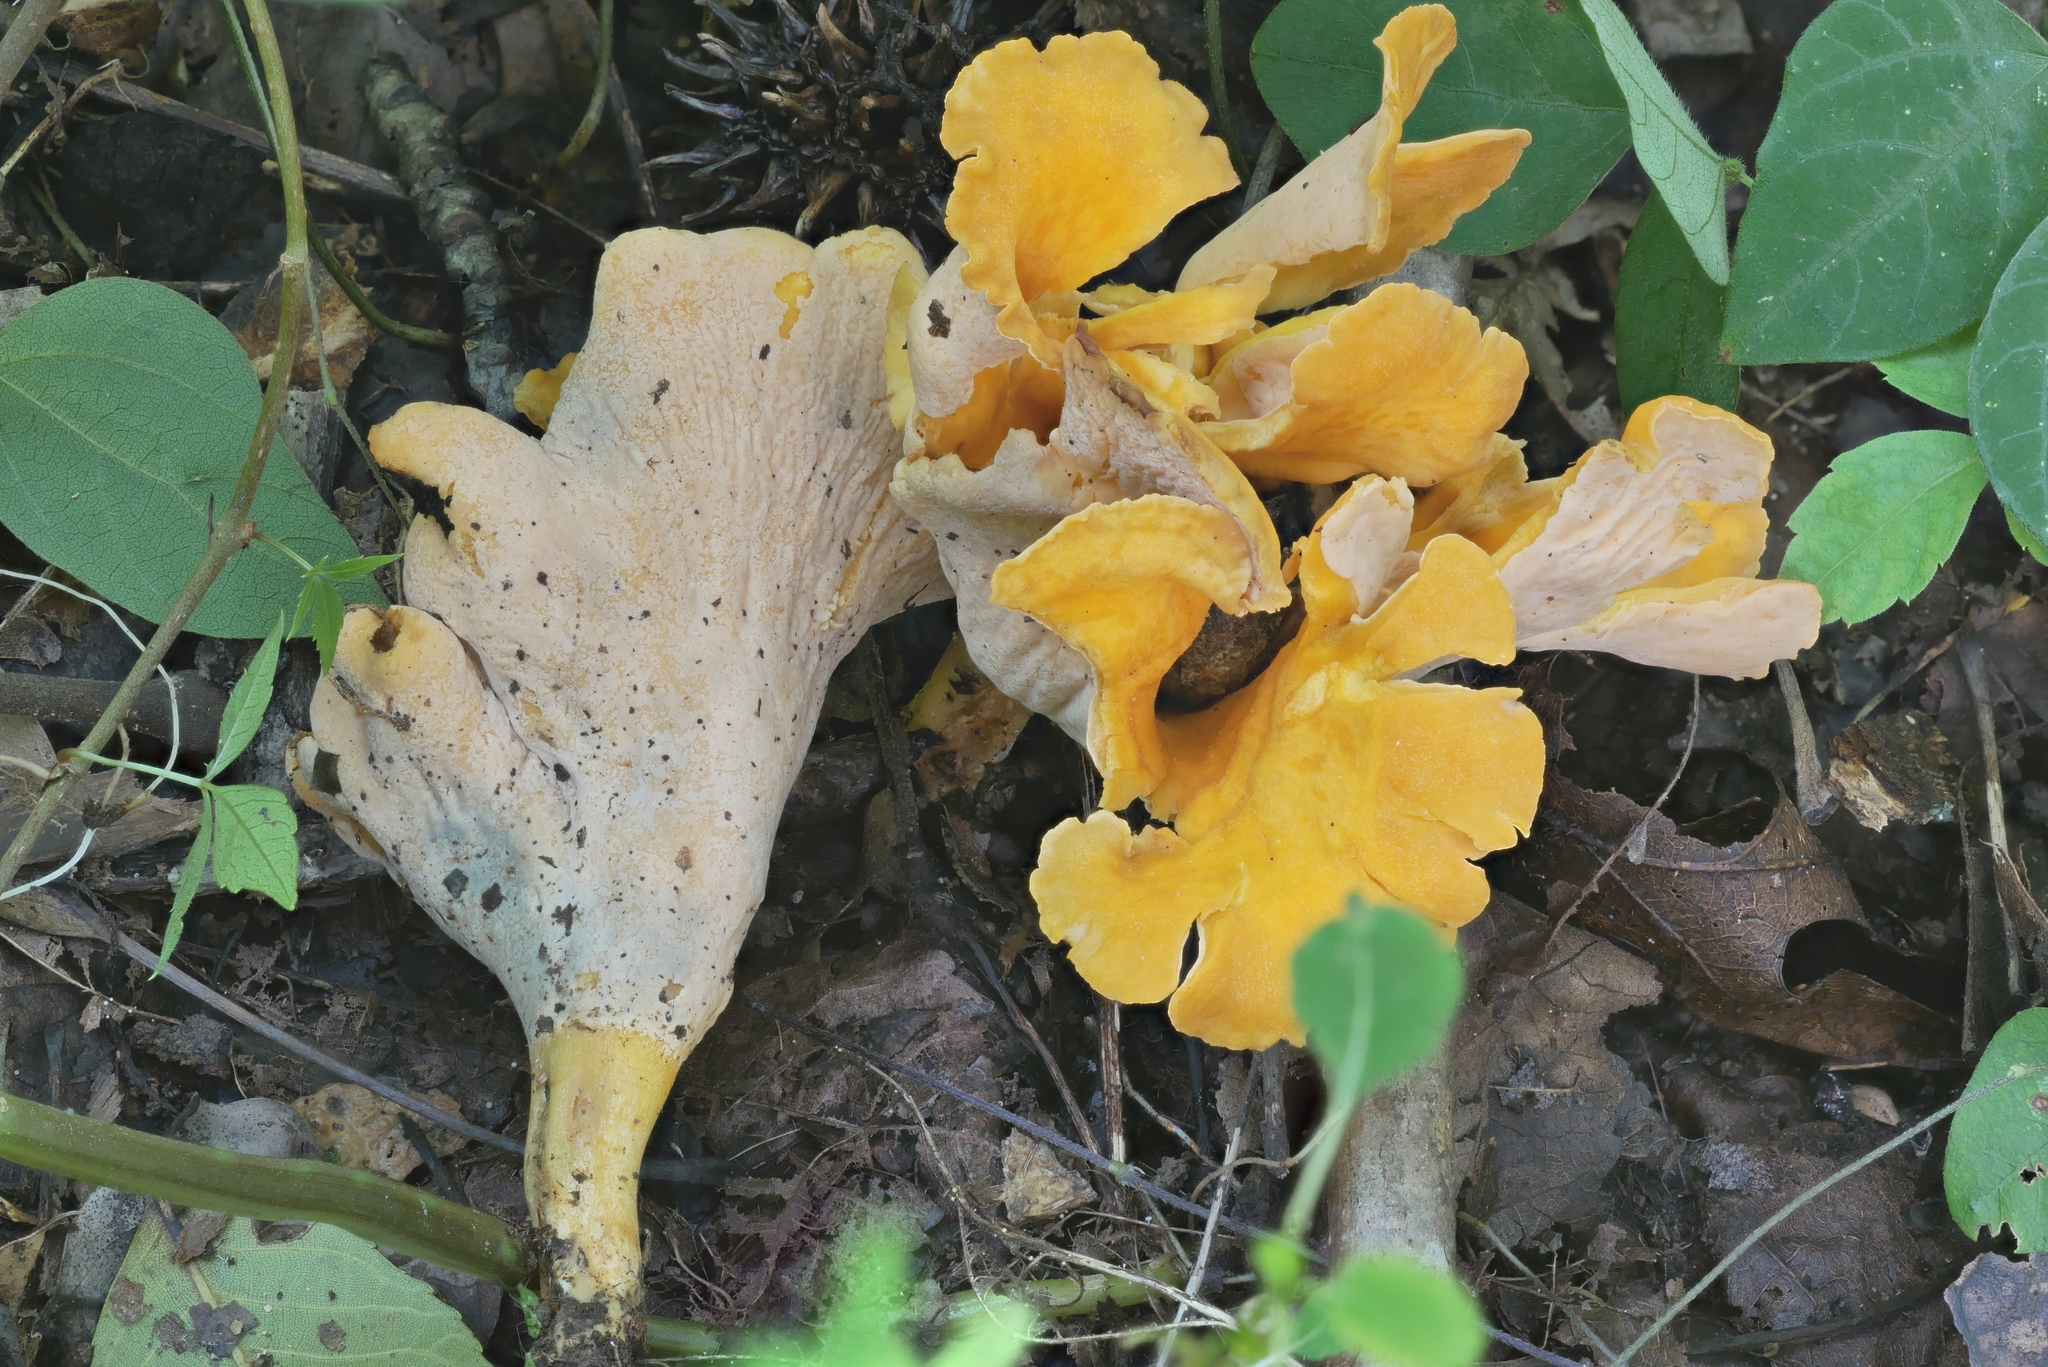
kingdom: Fungi
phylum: Basidiomycota
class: Agaricomycetes
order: Cantharellales
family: Hydnaceae
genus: Cantharellus
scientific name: Cantharellus flavolateritius
